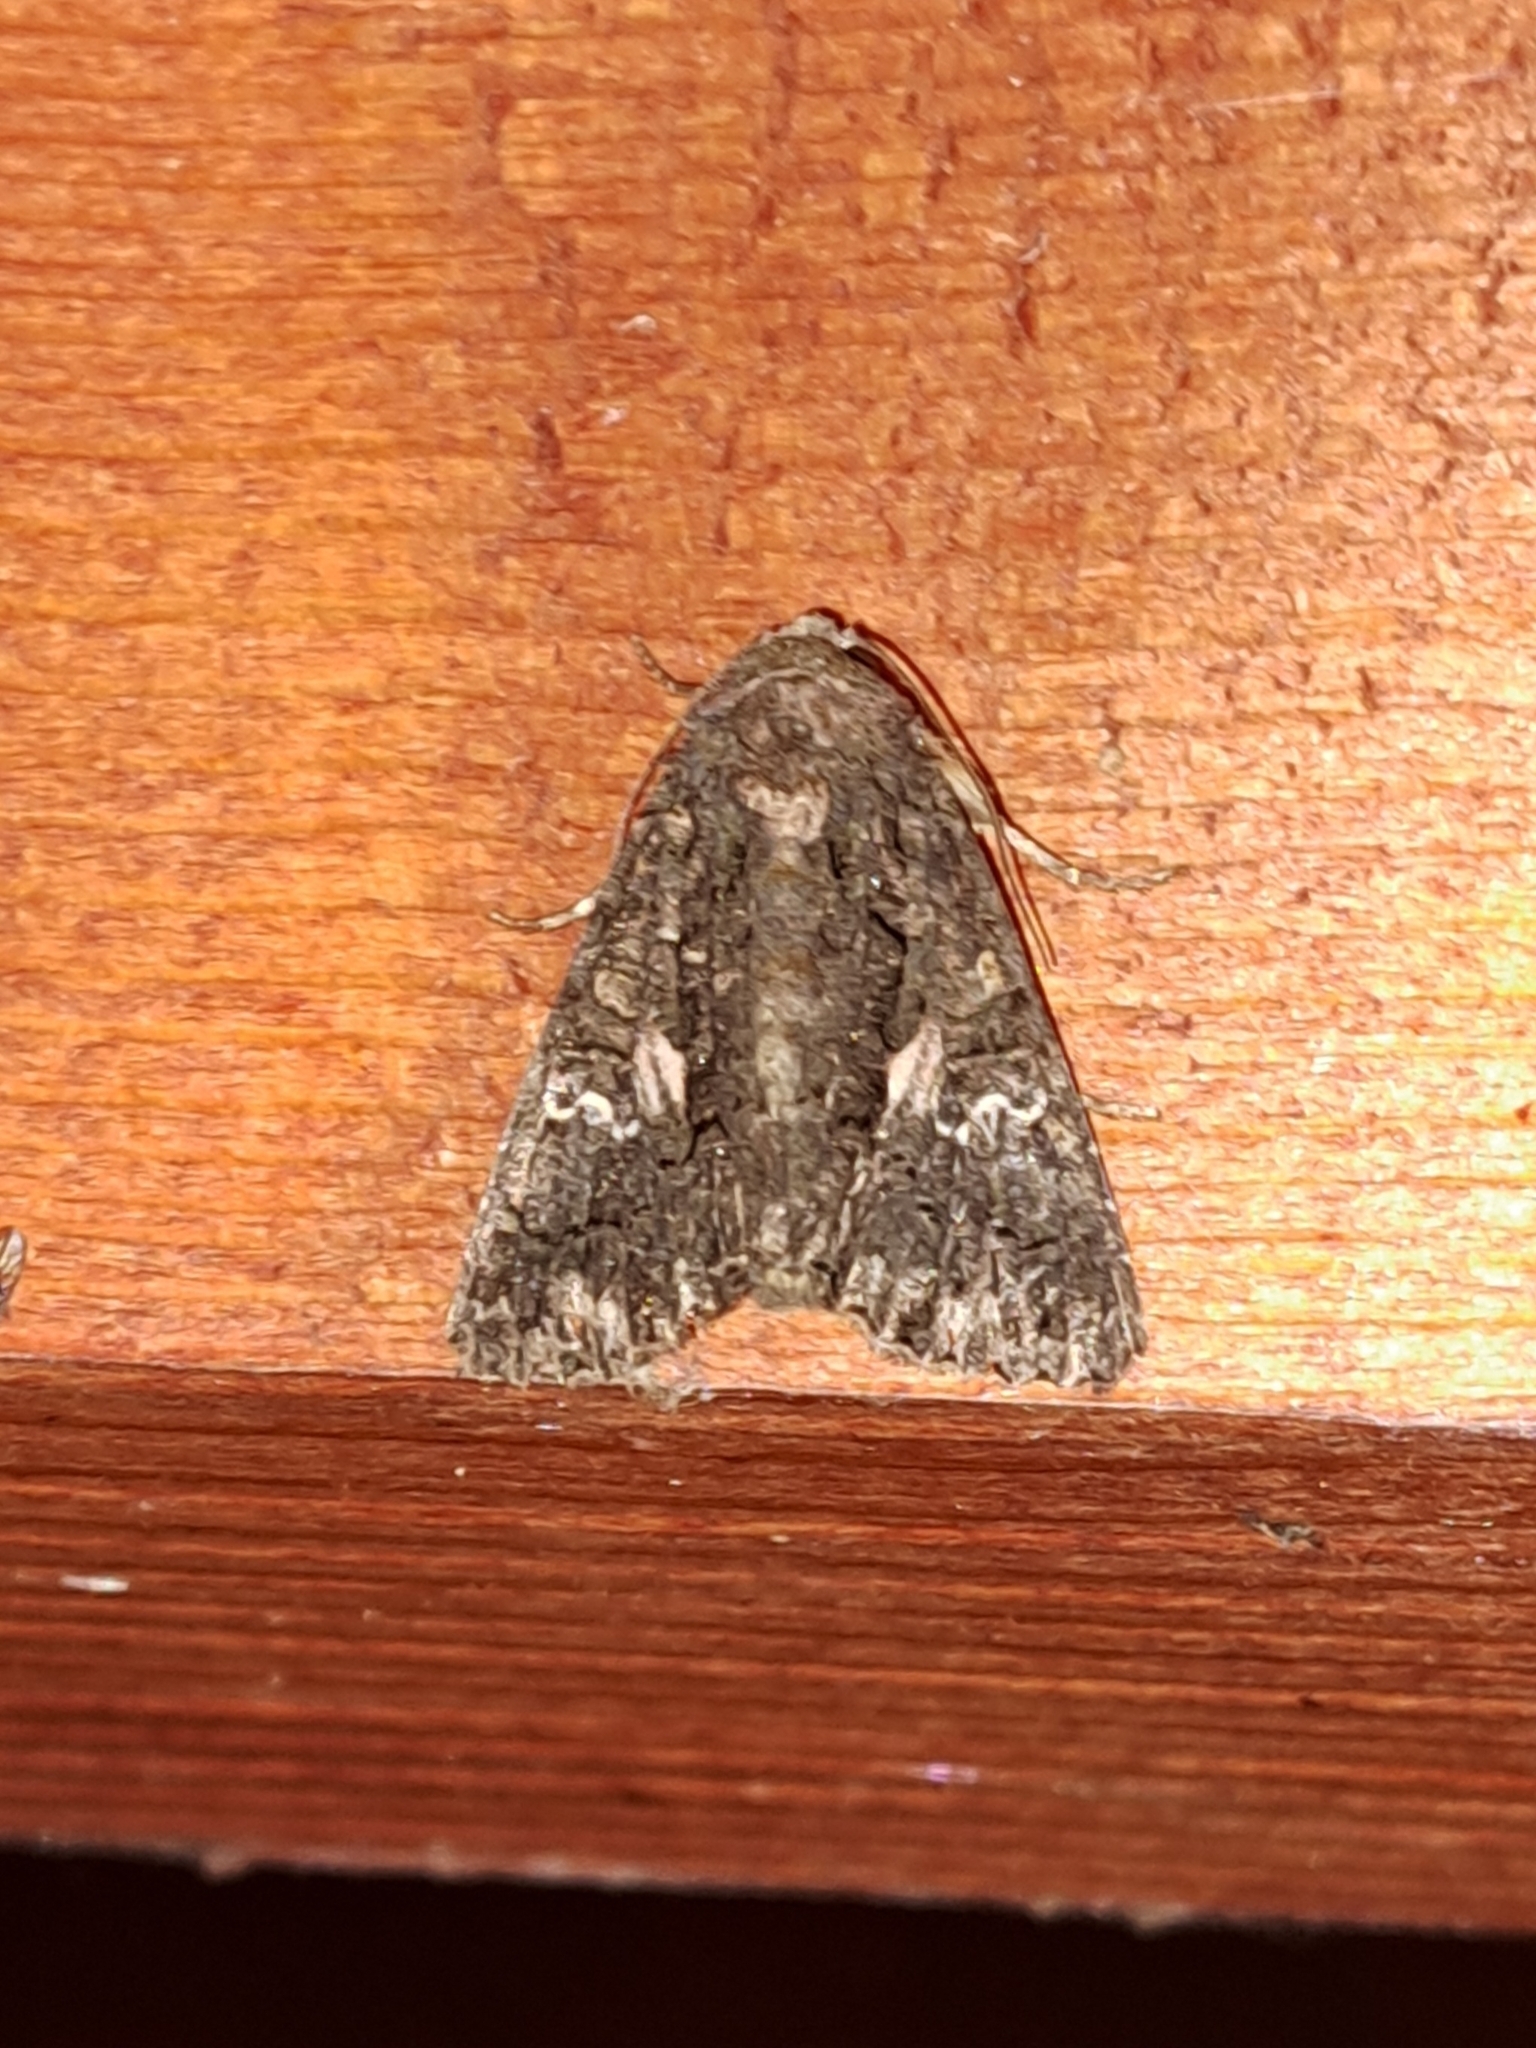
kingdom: Animalia
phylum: Arthropoda
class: Insecta
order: Lepidoptera
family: Noctuidae
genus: Aedia
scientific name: Aedia leucomelas
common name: Sorcerer
